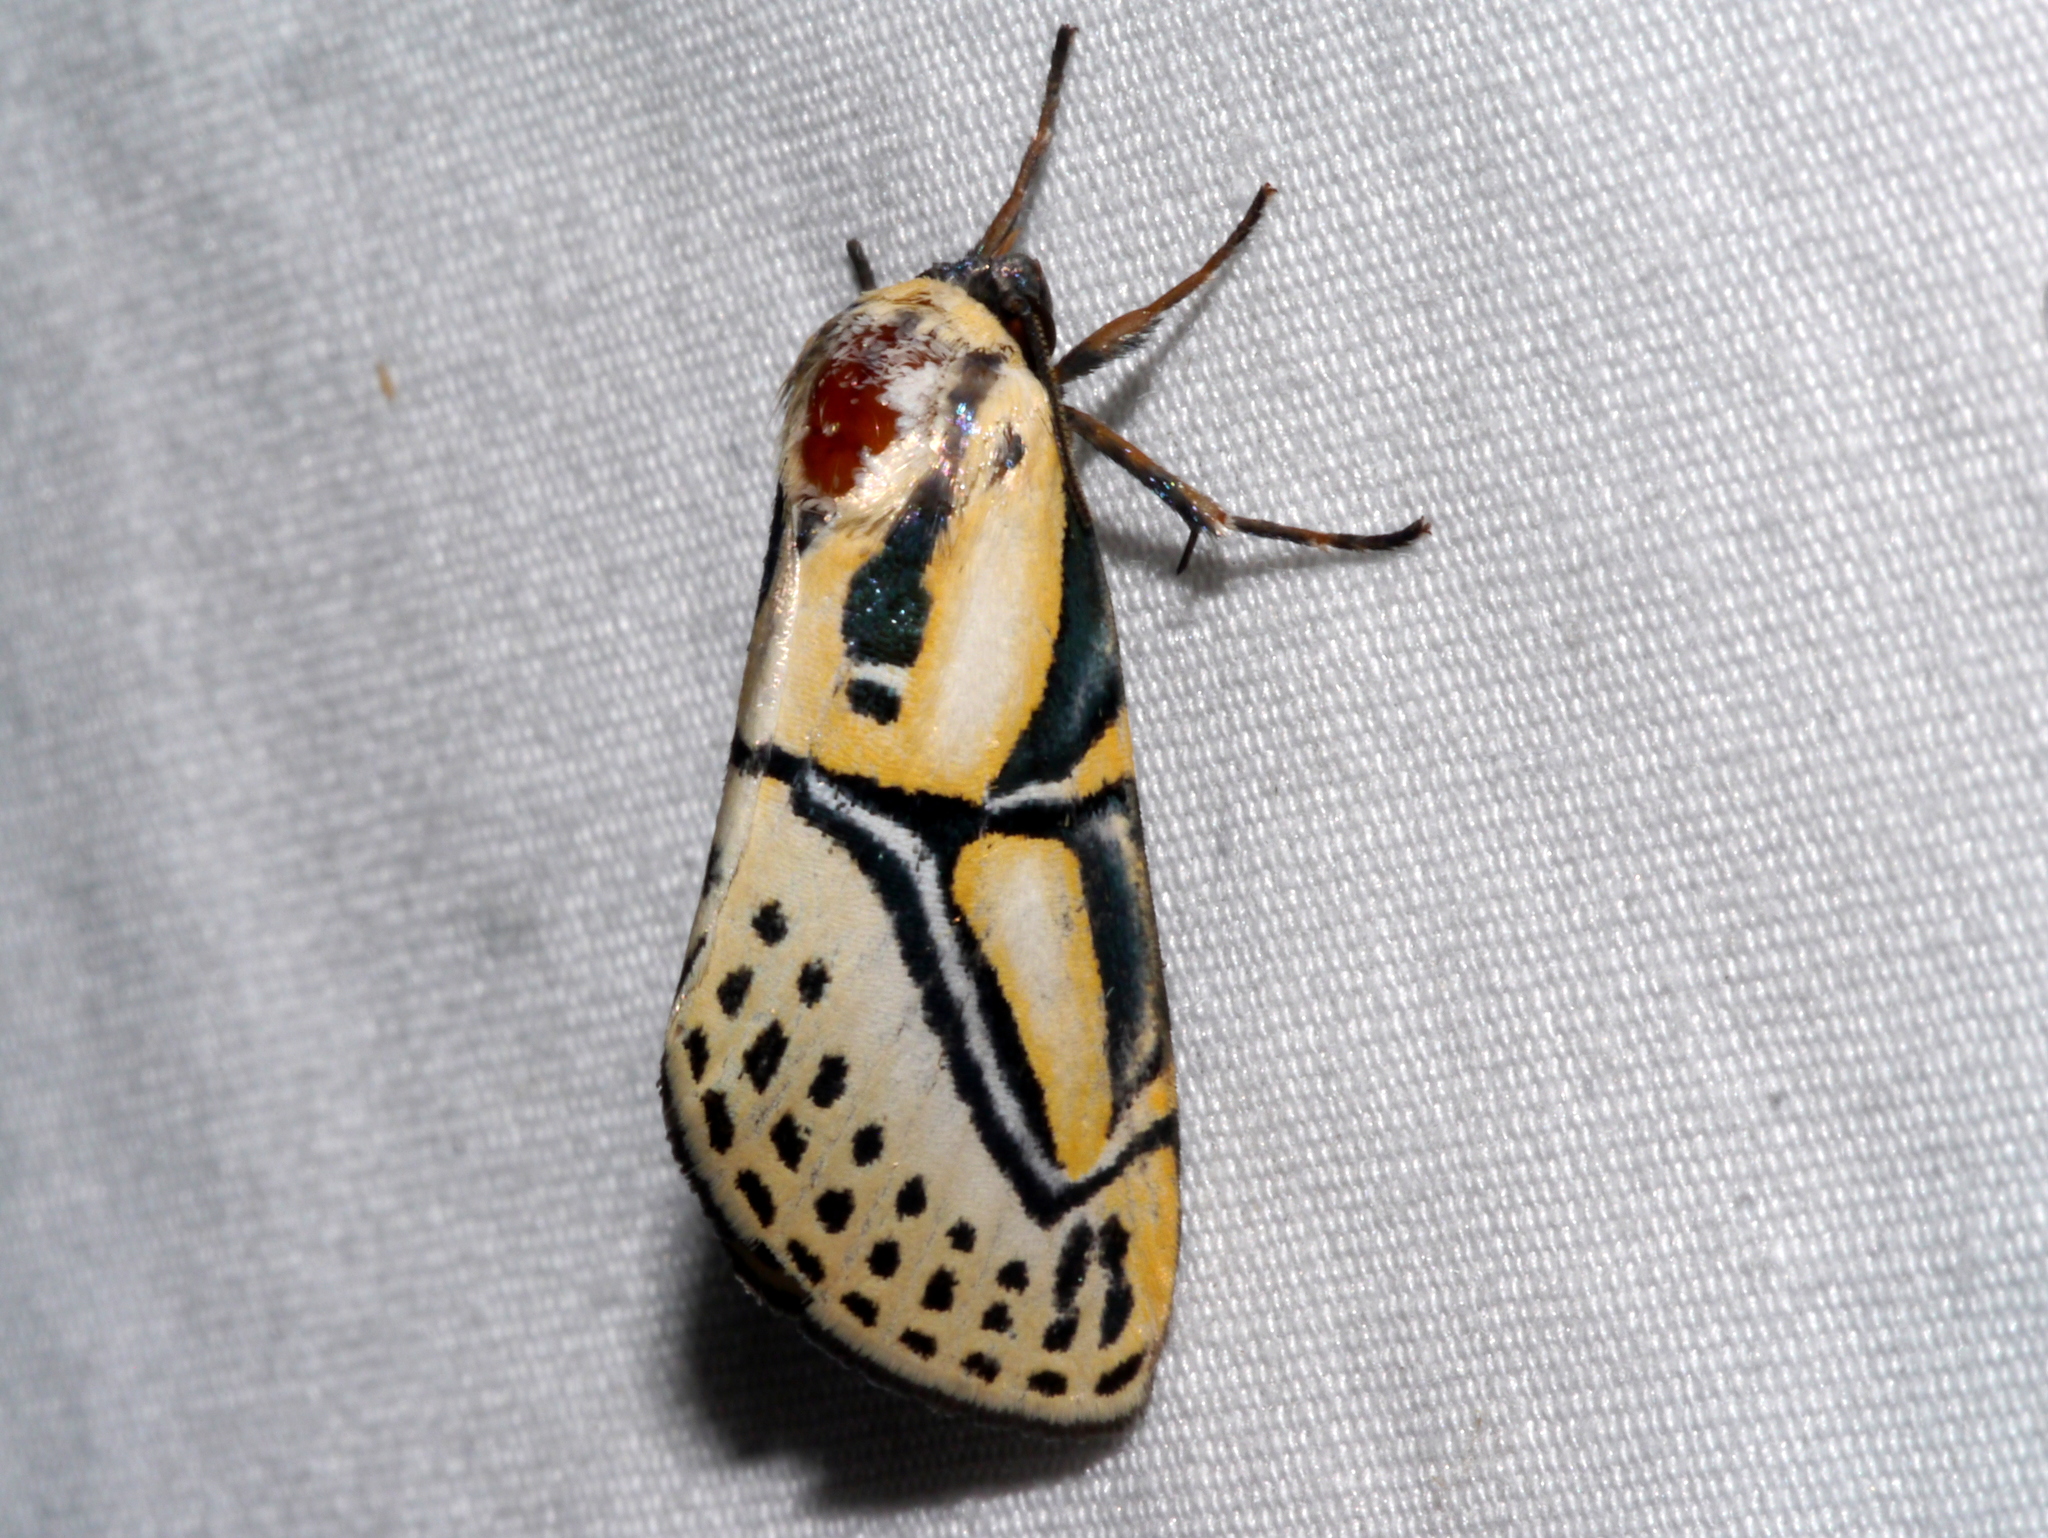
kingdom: Animalia
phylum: Arthropoda
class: Insecta
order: Lepidoptera
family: Erebidae
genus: Diphthera
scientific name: Diphthera festiva
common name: Hieroglyphic moth
